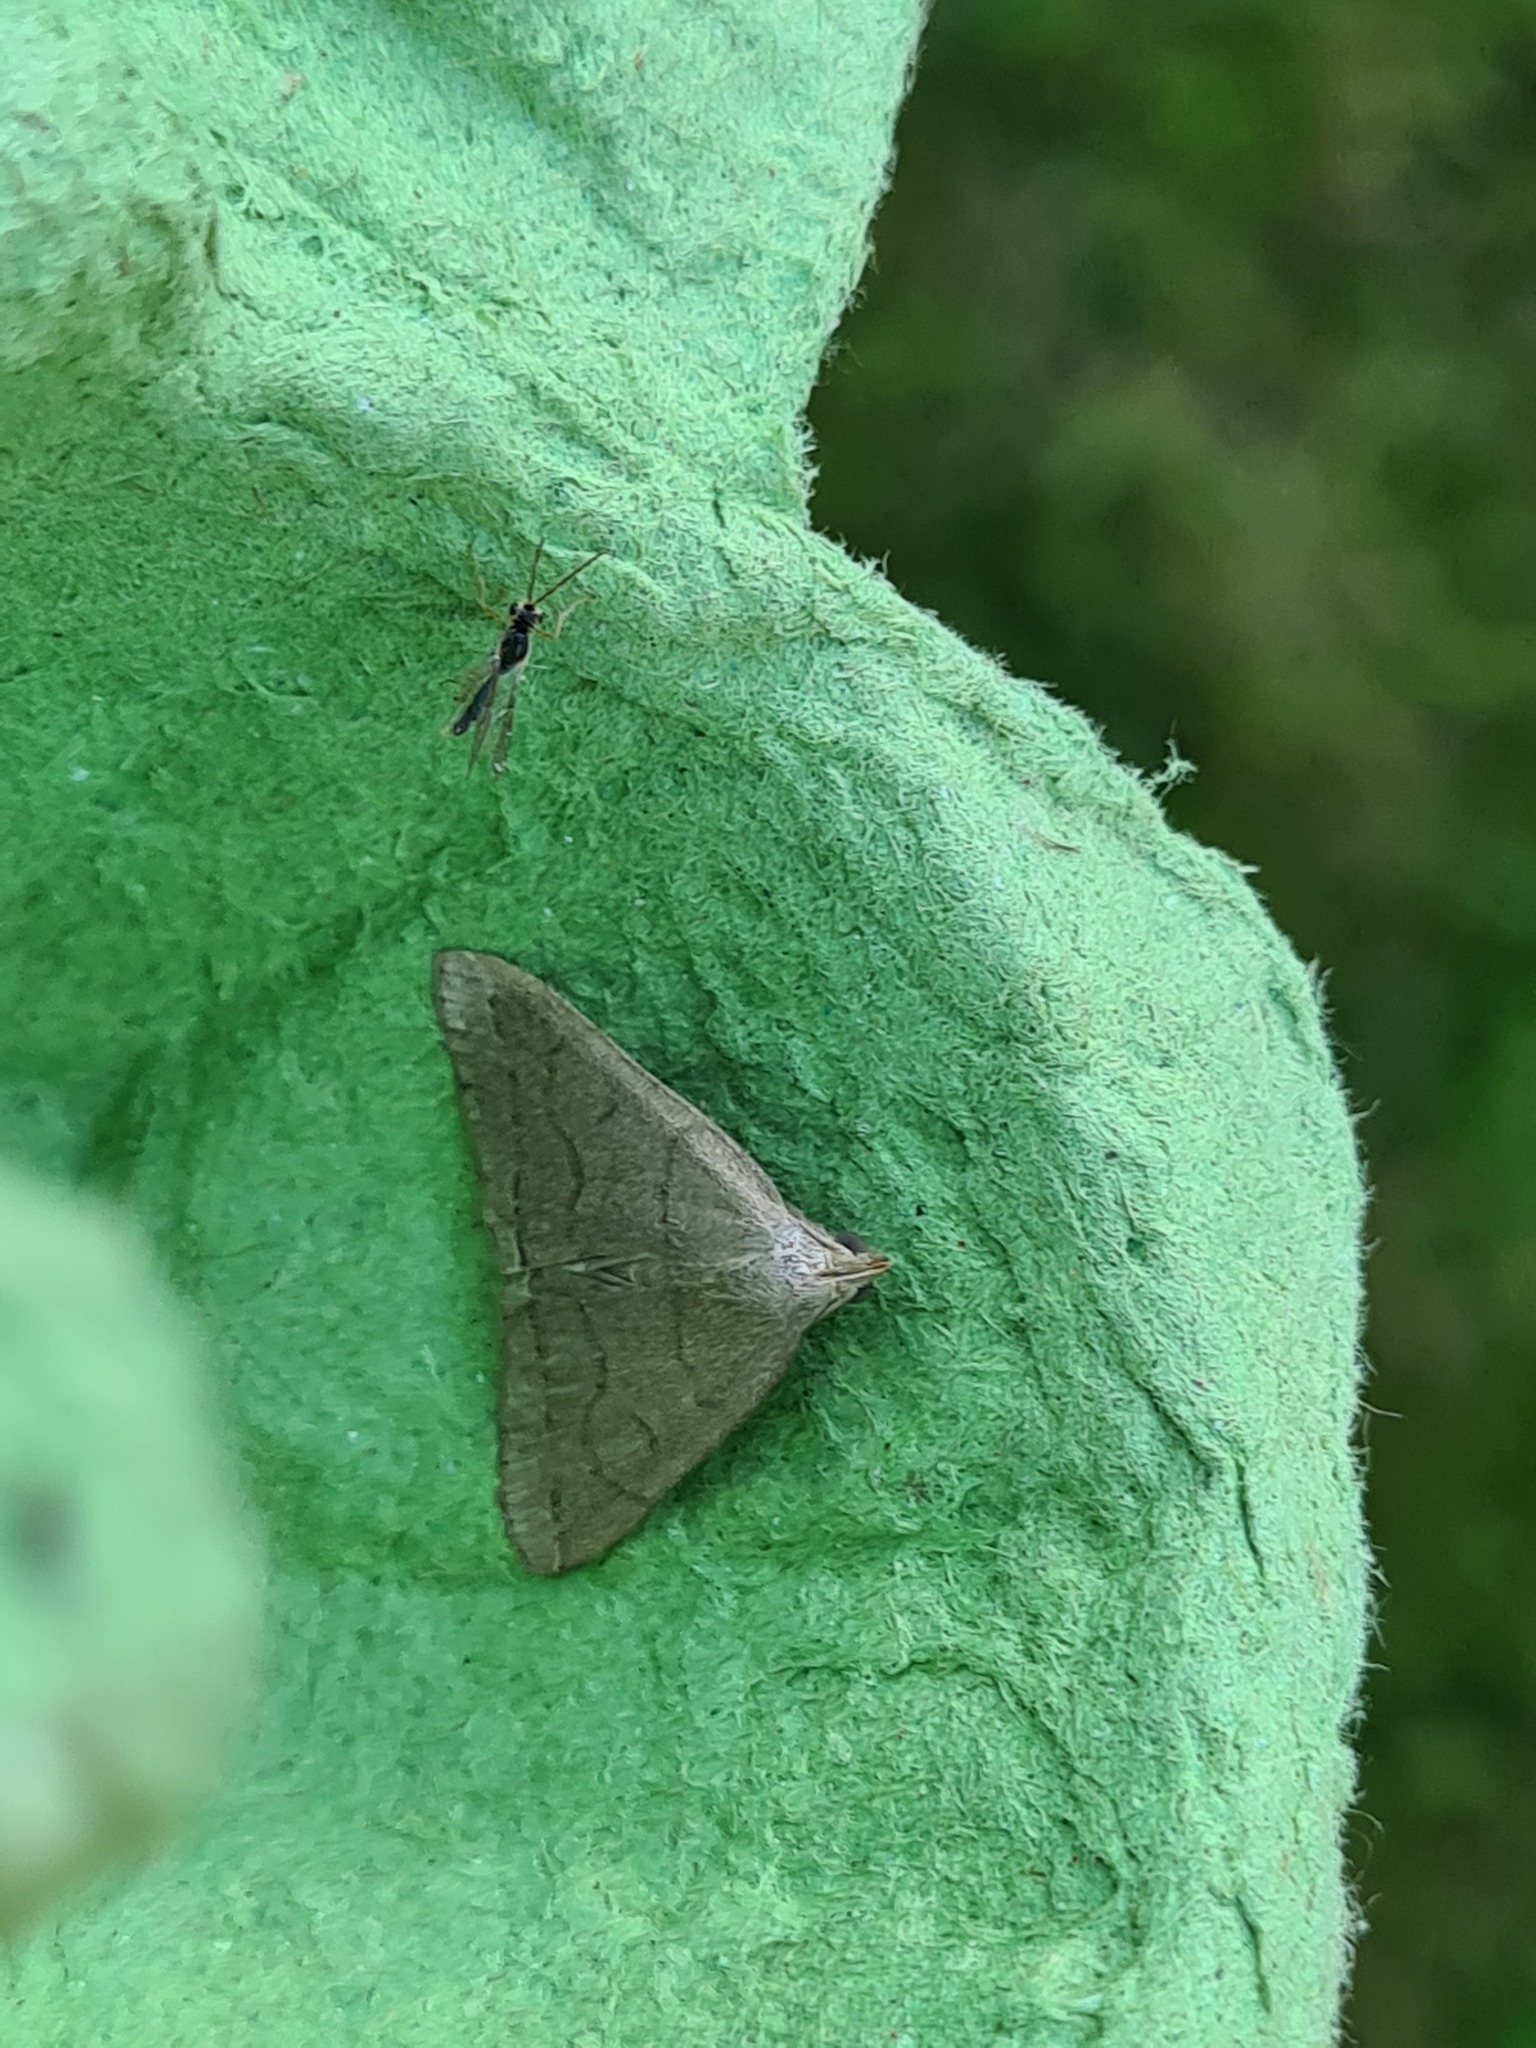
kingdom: Animalia
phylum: Arthropoda
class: Insecta
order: Lepidoptera
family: Erebidae
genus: Herminia
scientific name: Herminia tarsipennalis
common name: Fan-foot
